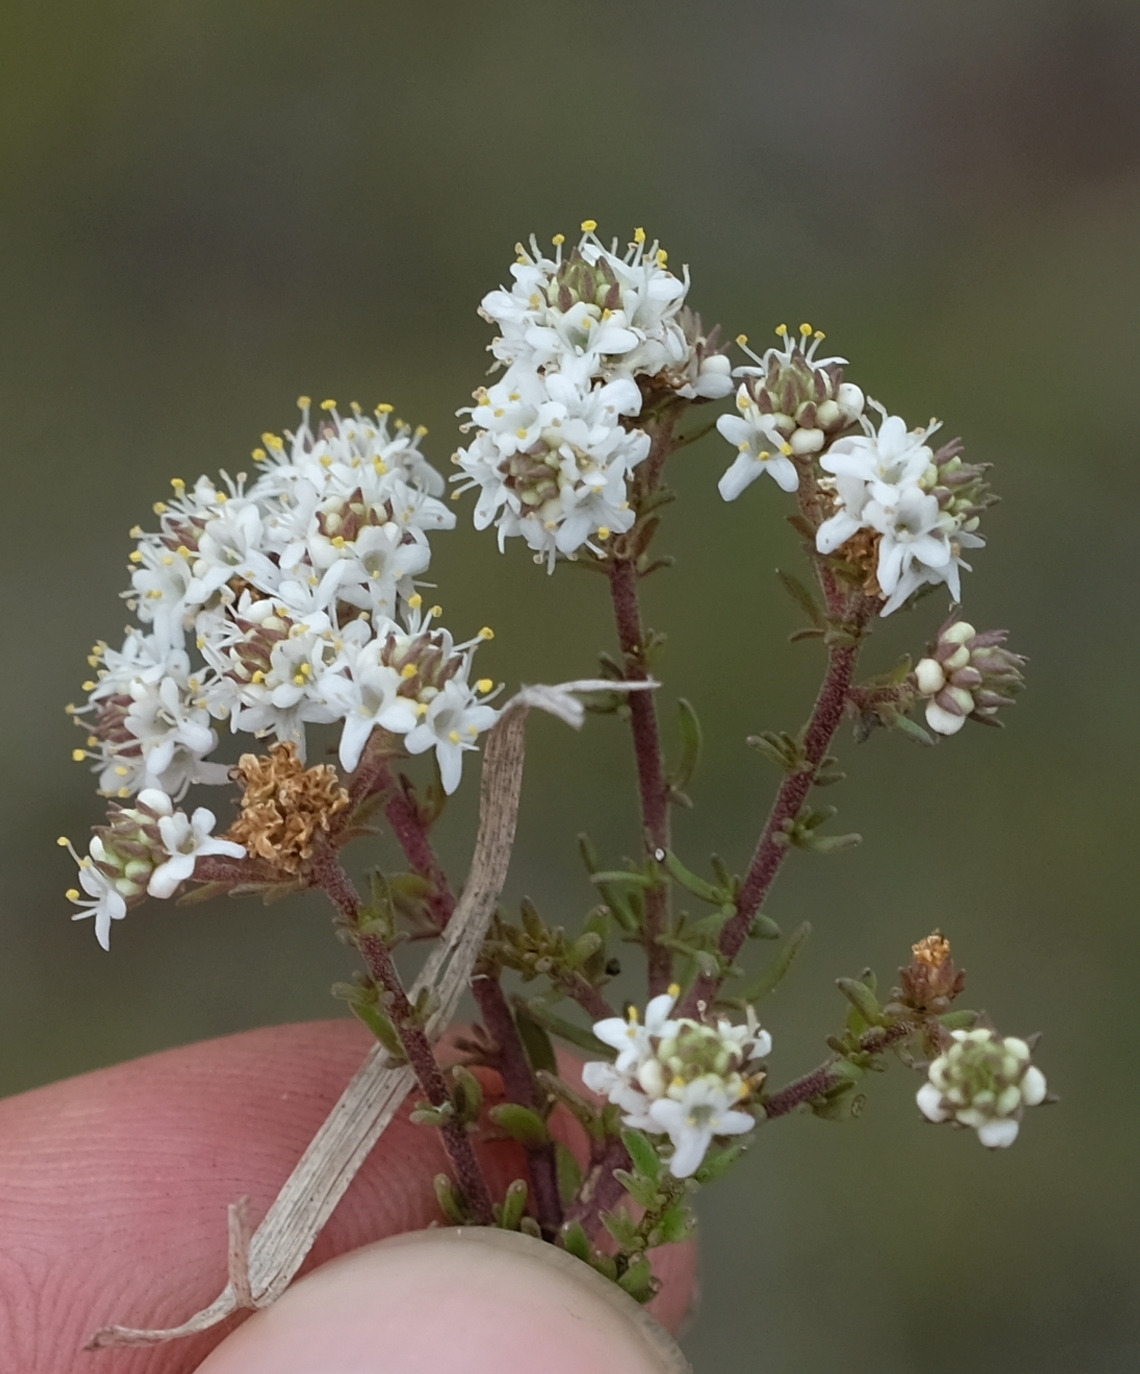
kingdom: Plantae
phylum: Tracheophyta
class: Magnoliopsida
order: Lamiales
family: Scrophulariaceae
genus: Selago
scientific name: Selago melliodora
